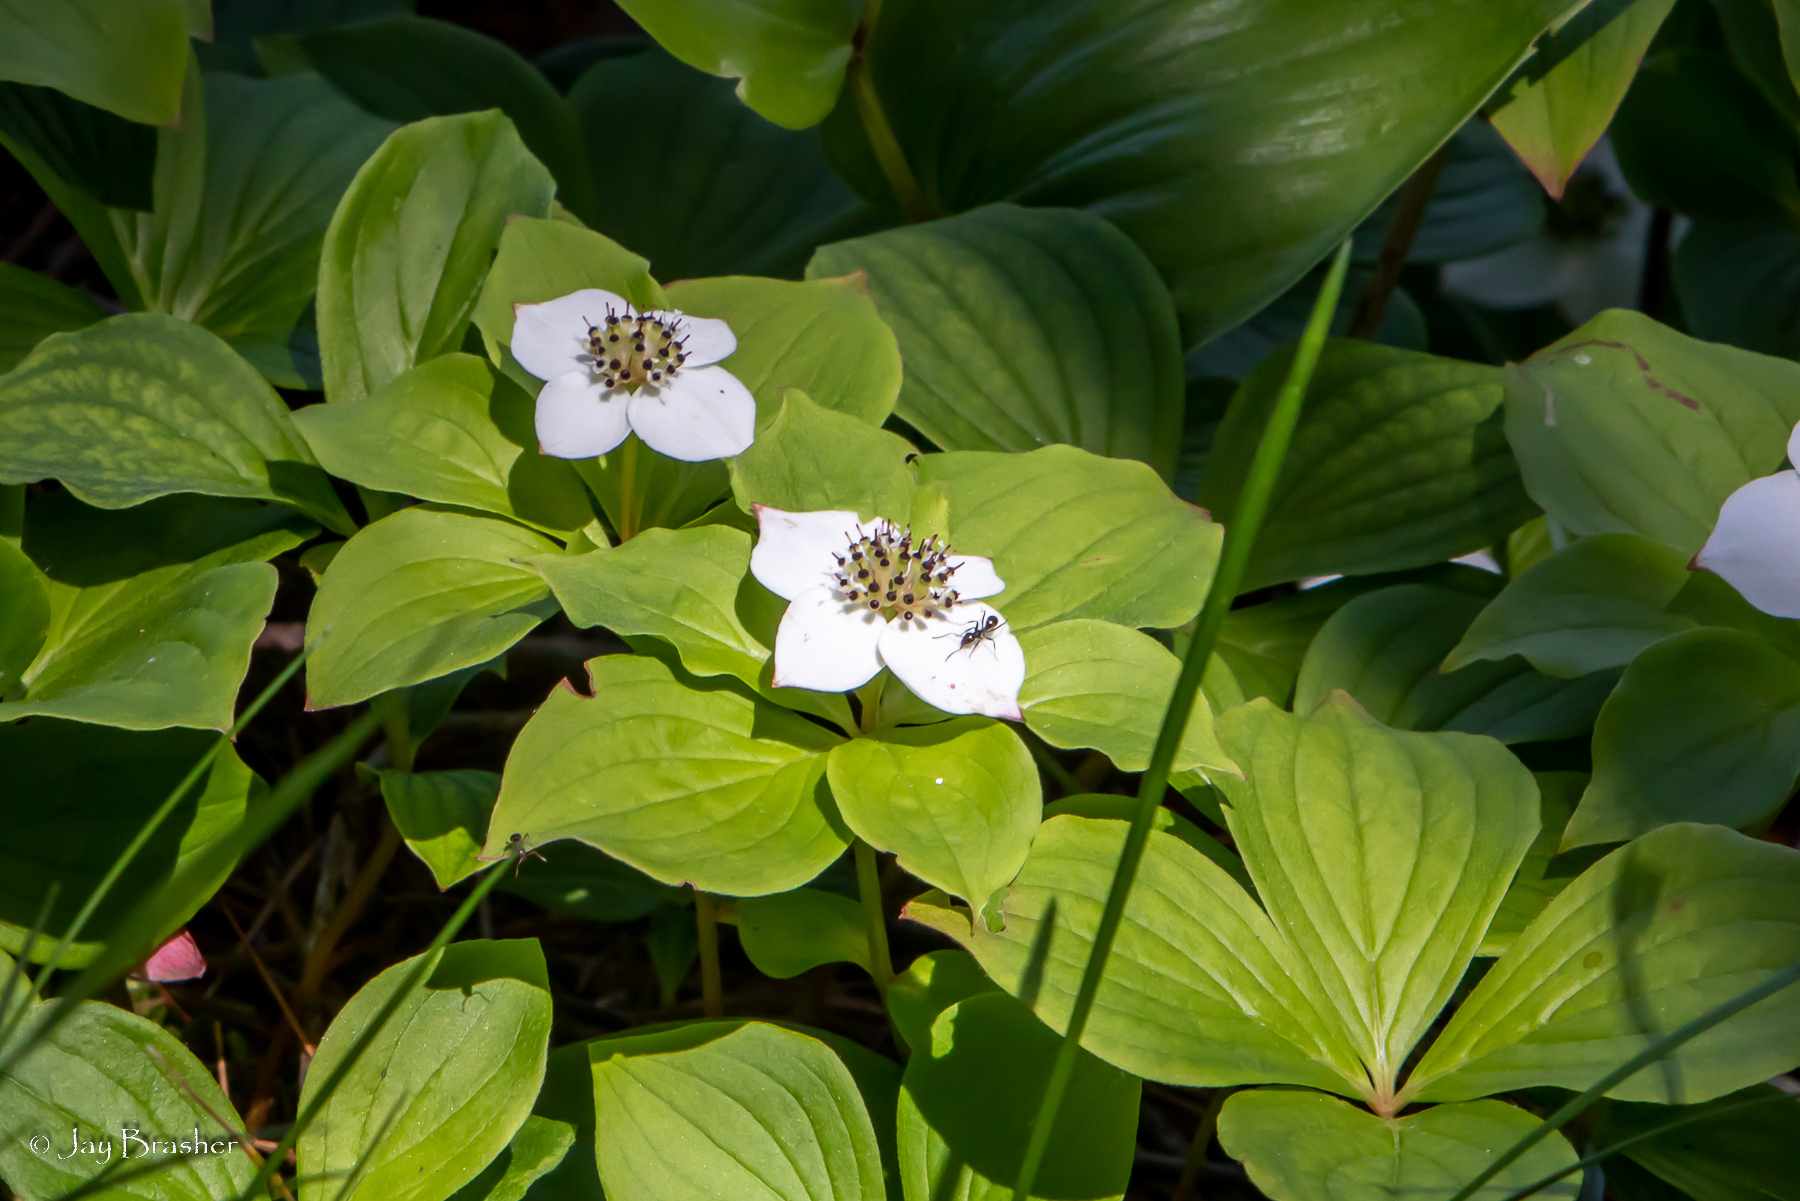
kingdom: Plantae
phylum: Tracheophyta
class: Magnoliopsida
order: Cornales
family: Cornaceae
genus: Cornus
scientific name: Cornus canadensis
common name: Creeping dogwood
